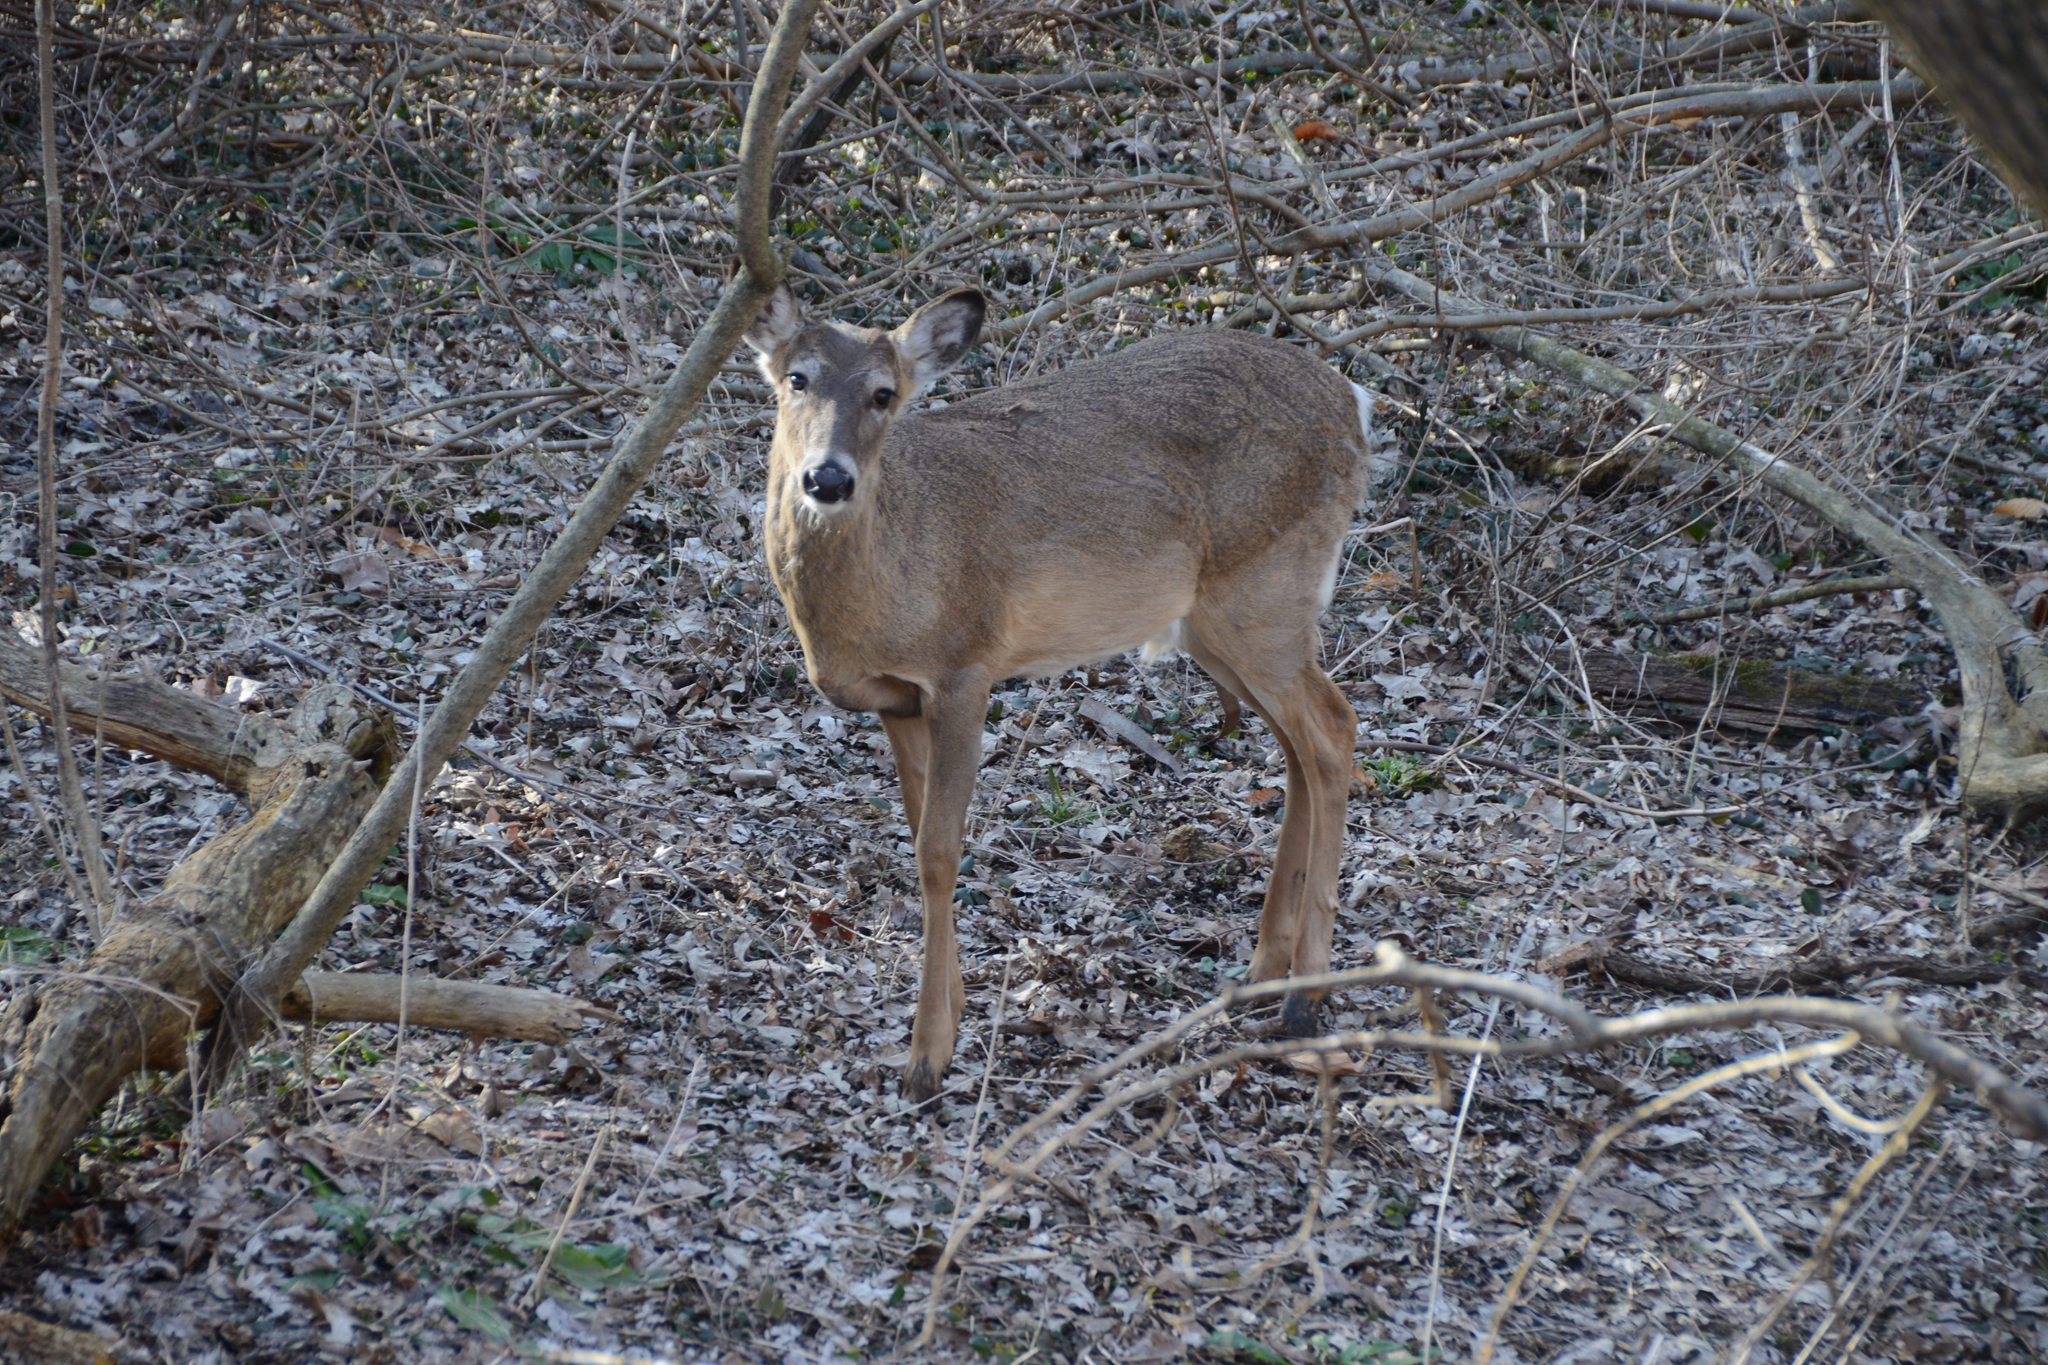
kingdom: Animalia
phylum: Chordata
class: Mammalia
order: Artiodactyla
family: Cervidae
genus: Odocoileus
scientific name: Odocoileus virginianus
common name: White-tailed deer
